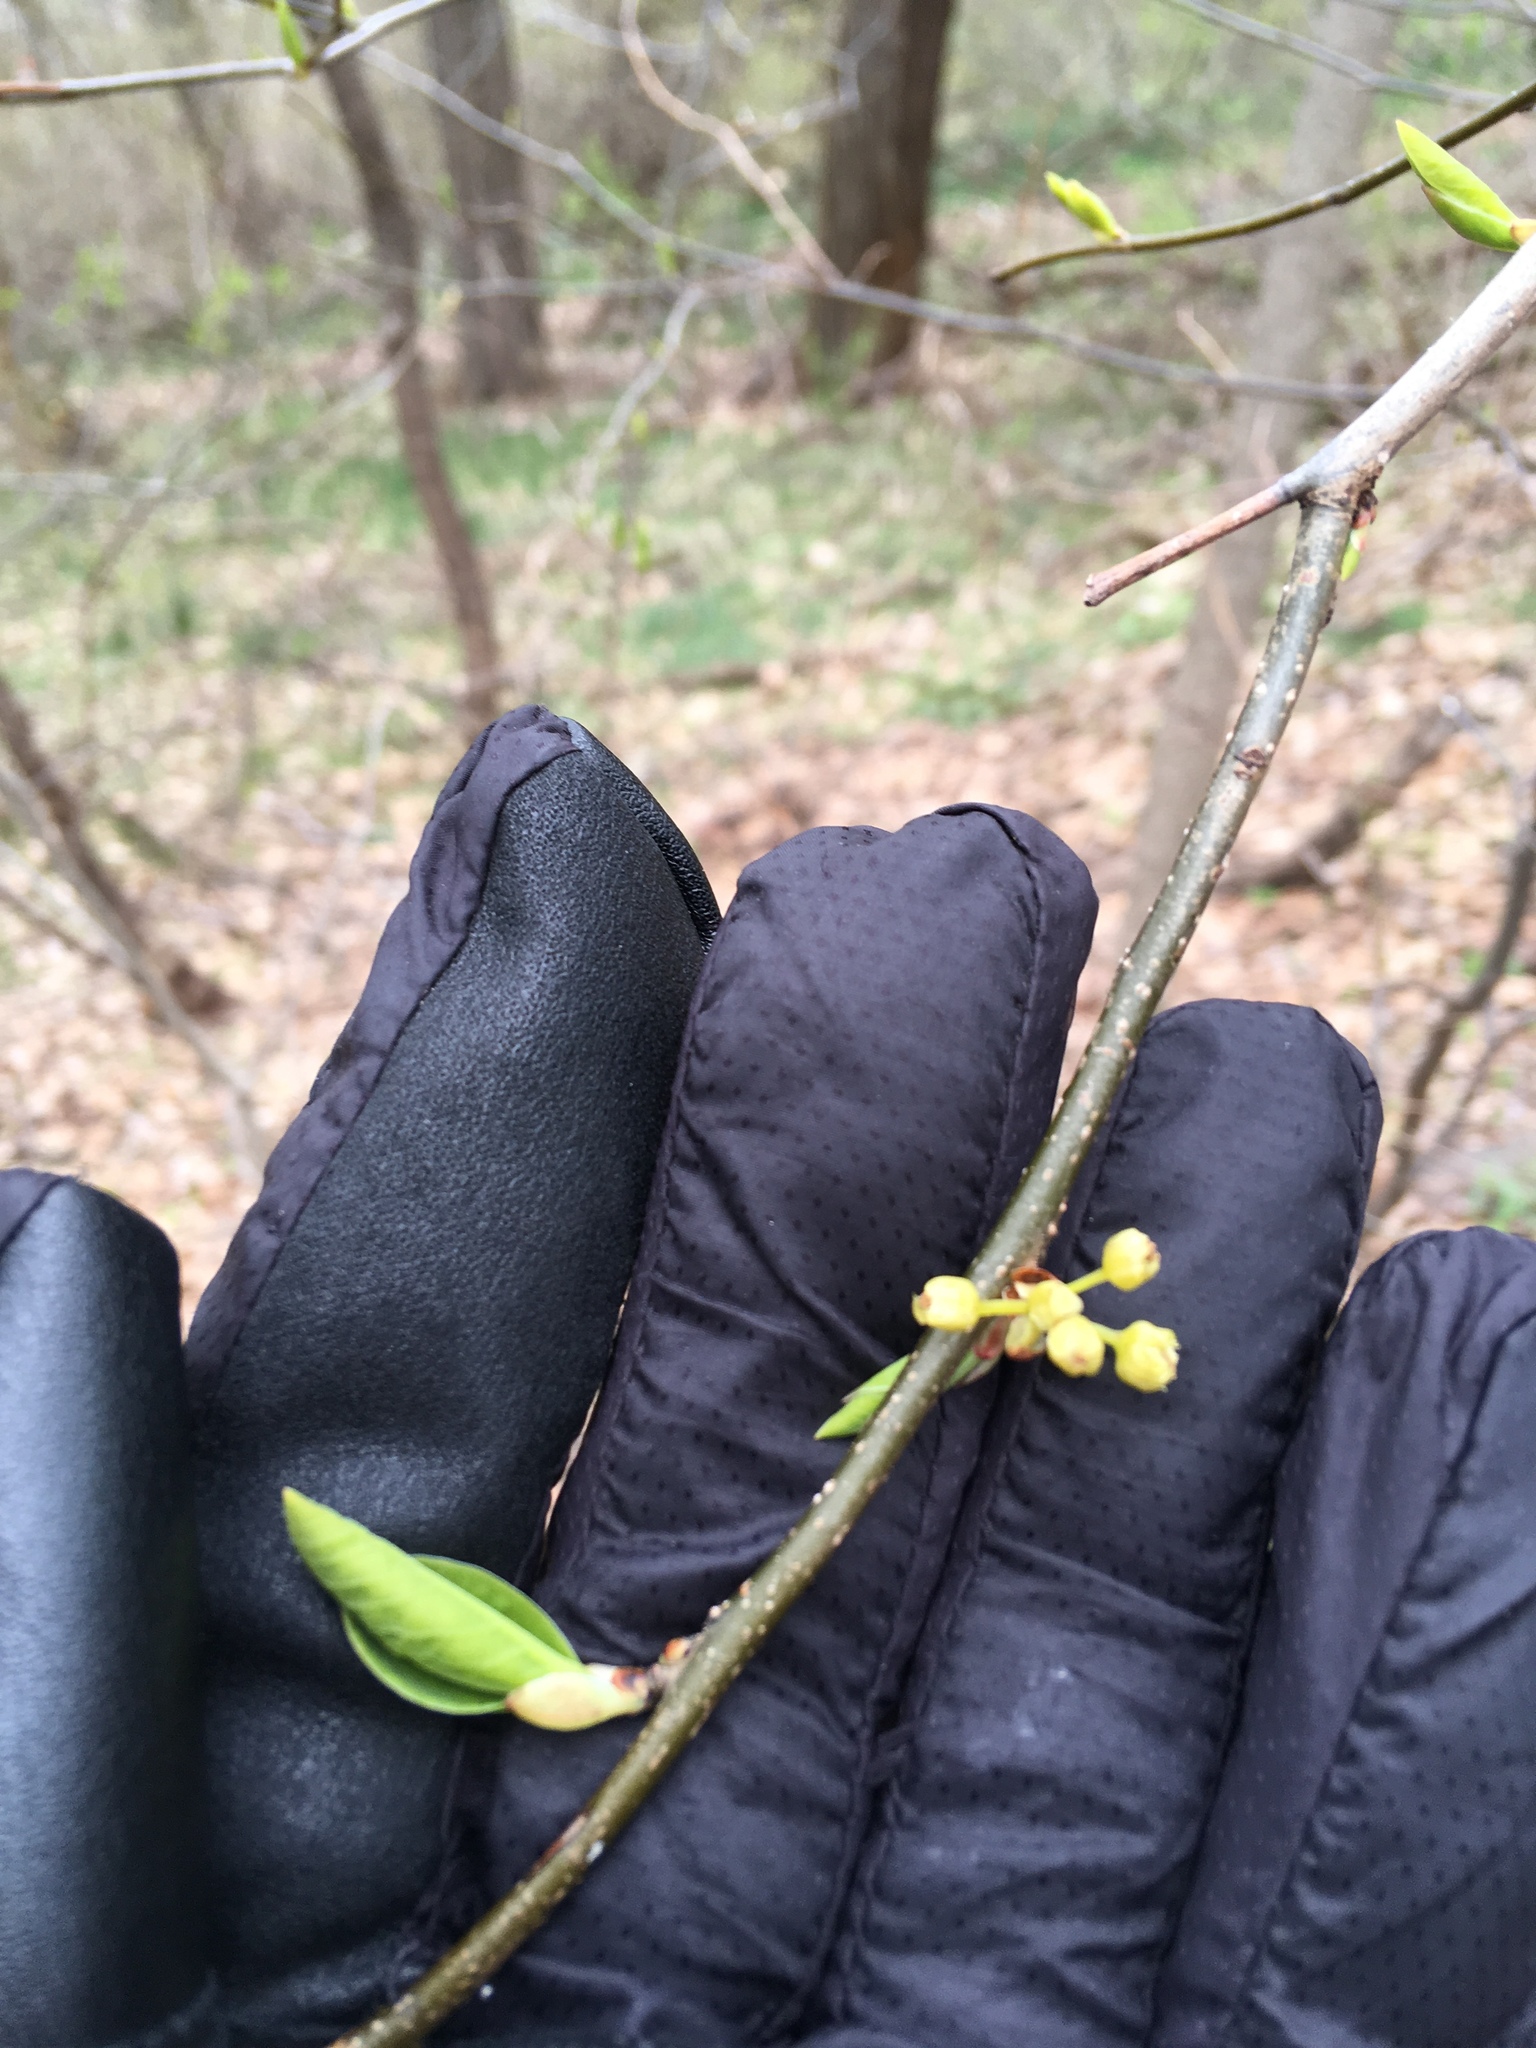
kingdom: Plantae
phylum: Tracheophyta
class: Magnoliopsida
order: Laurales
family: Lauraceae
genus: Lindera
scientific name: Lindera benzoin
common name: Spicebush
